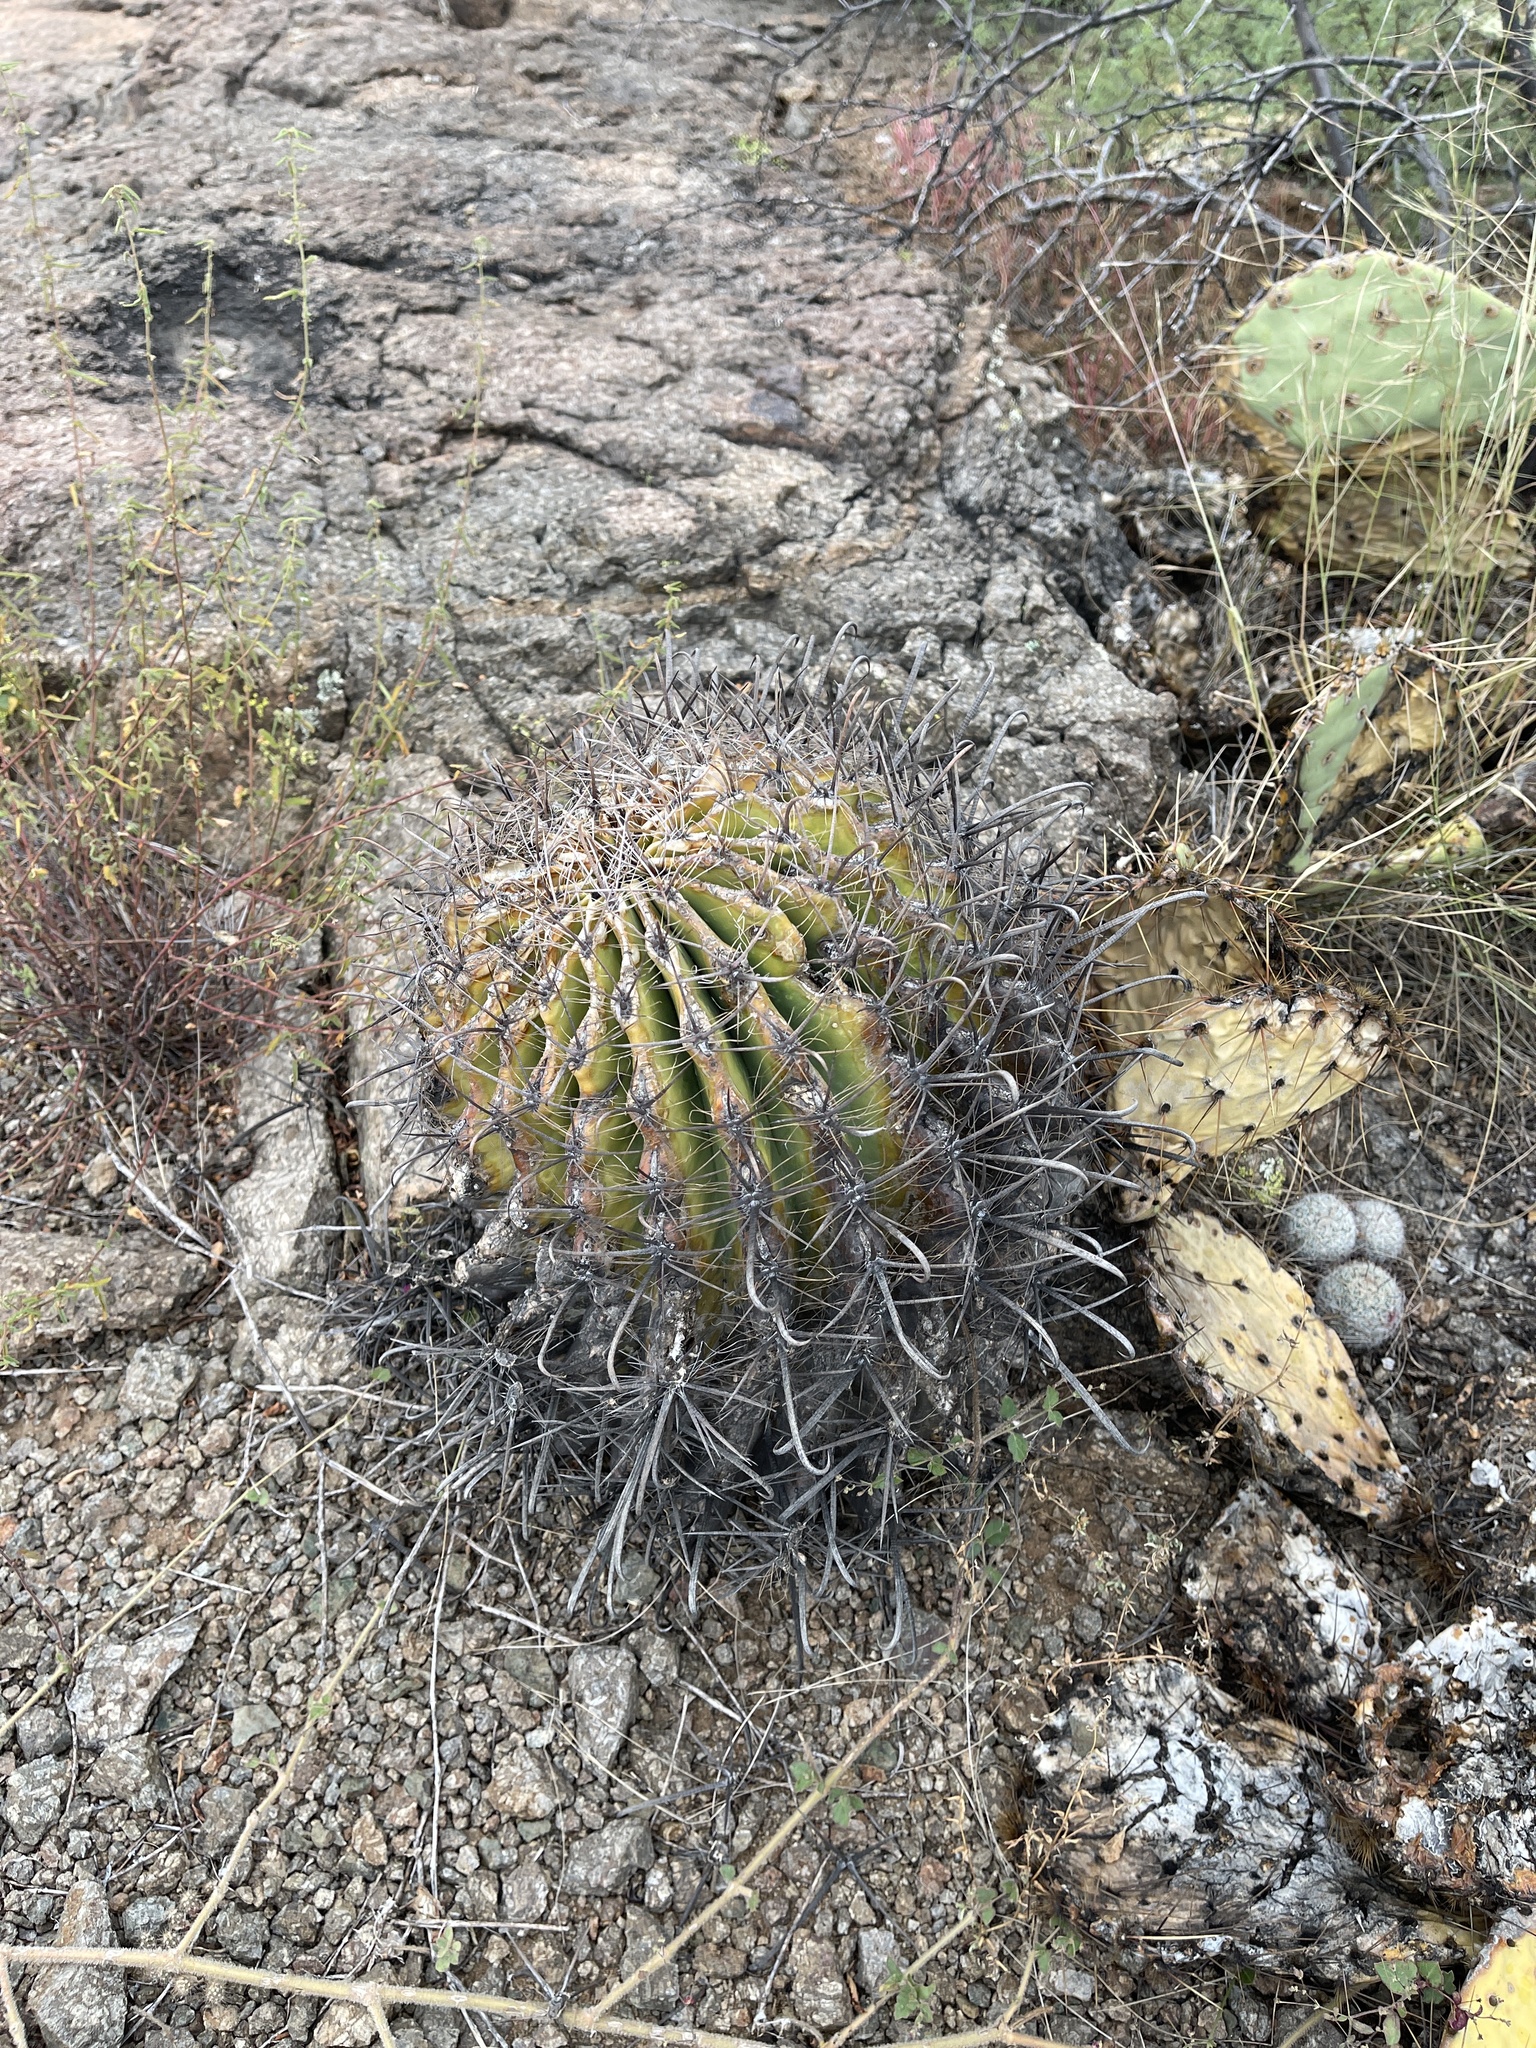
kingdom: Plantae
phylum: Tracheophyta
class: Magnoliopsida
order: Caryophyllales
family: Cactaceae
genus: Ferocactus
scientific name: Ferocactus wislizeni
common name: Candy barrel cactus
